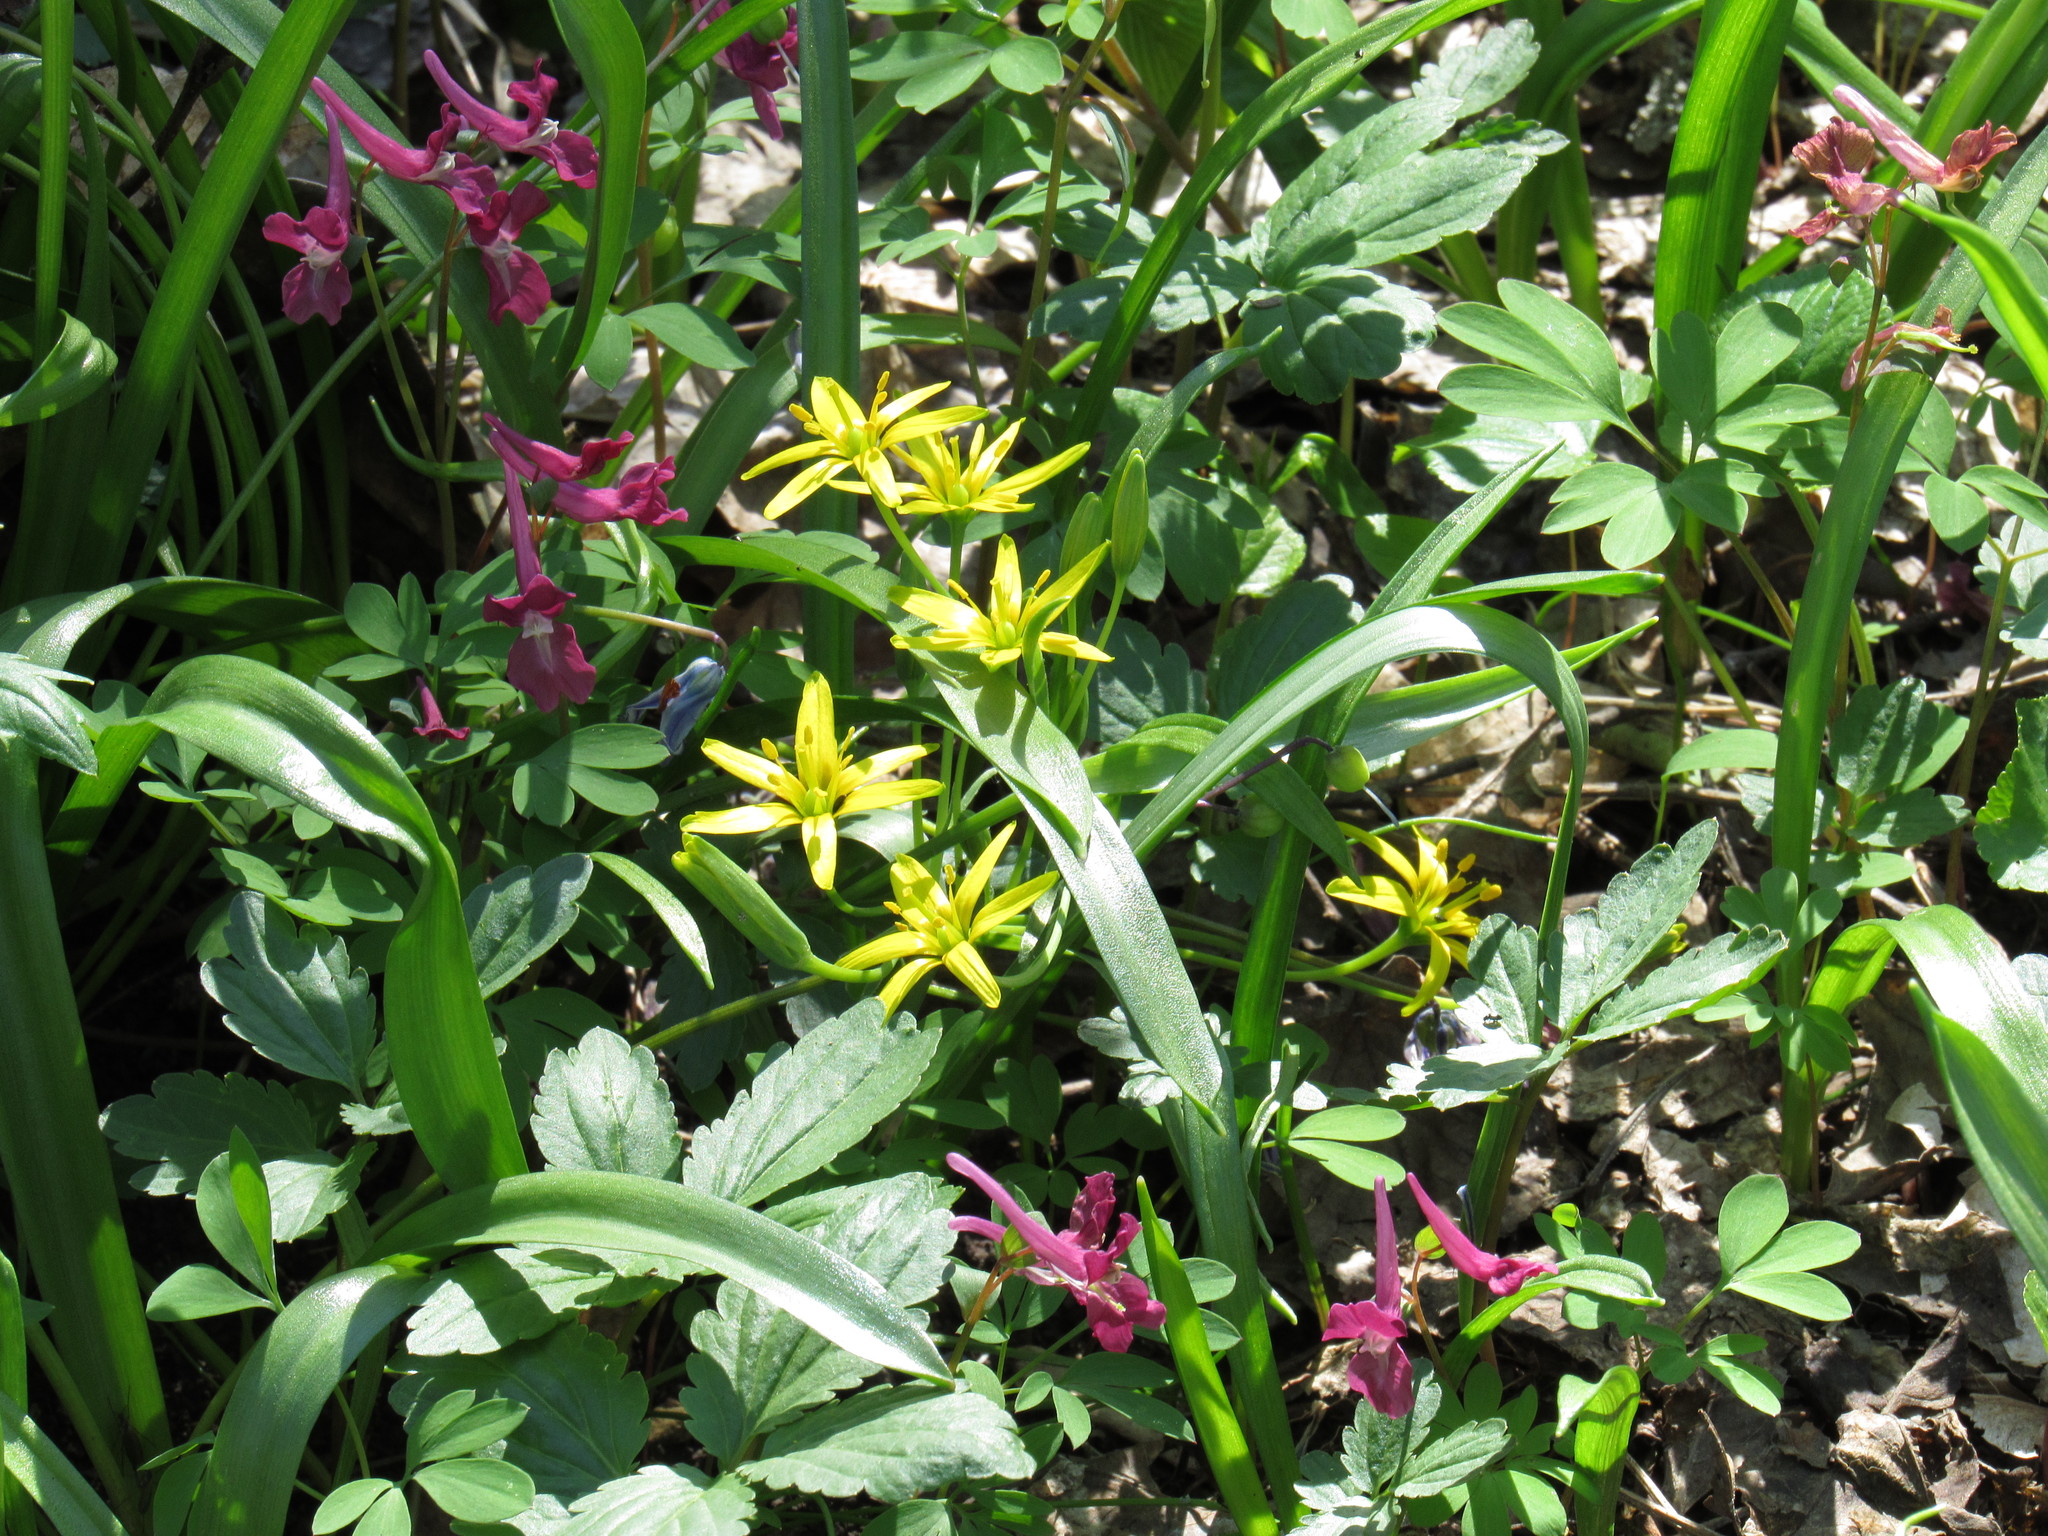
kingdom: Plantae
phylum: Tracheophyta
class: Liliopsida
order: Liliales
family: Liliaceae
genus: Gagea
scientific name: Gagea lutea
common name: Yellow star-of-bethlehem
